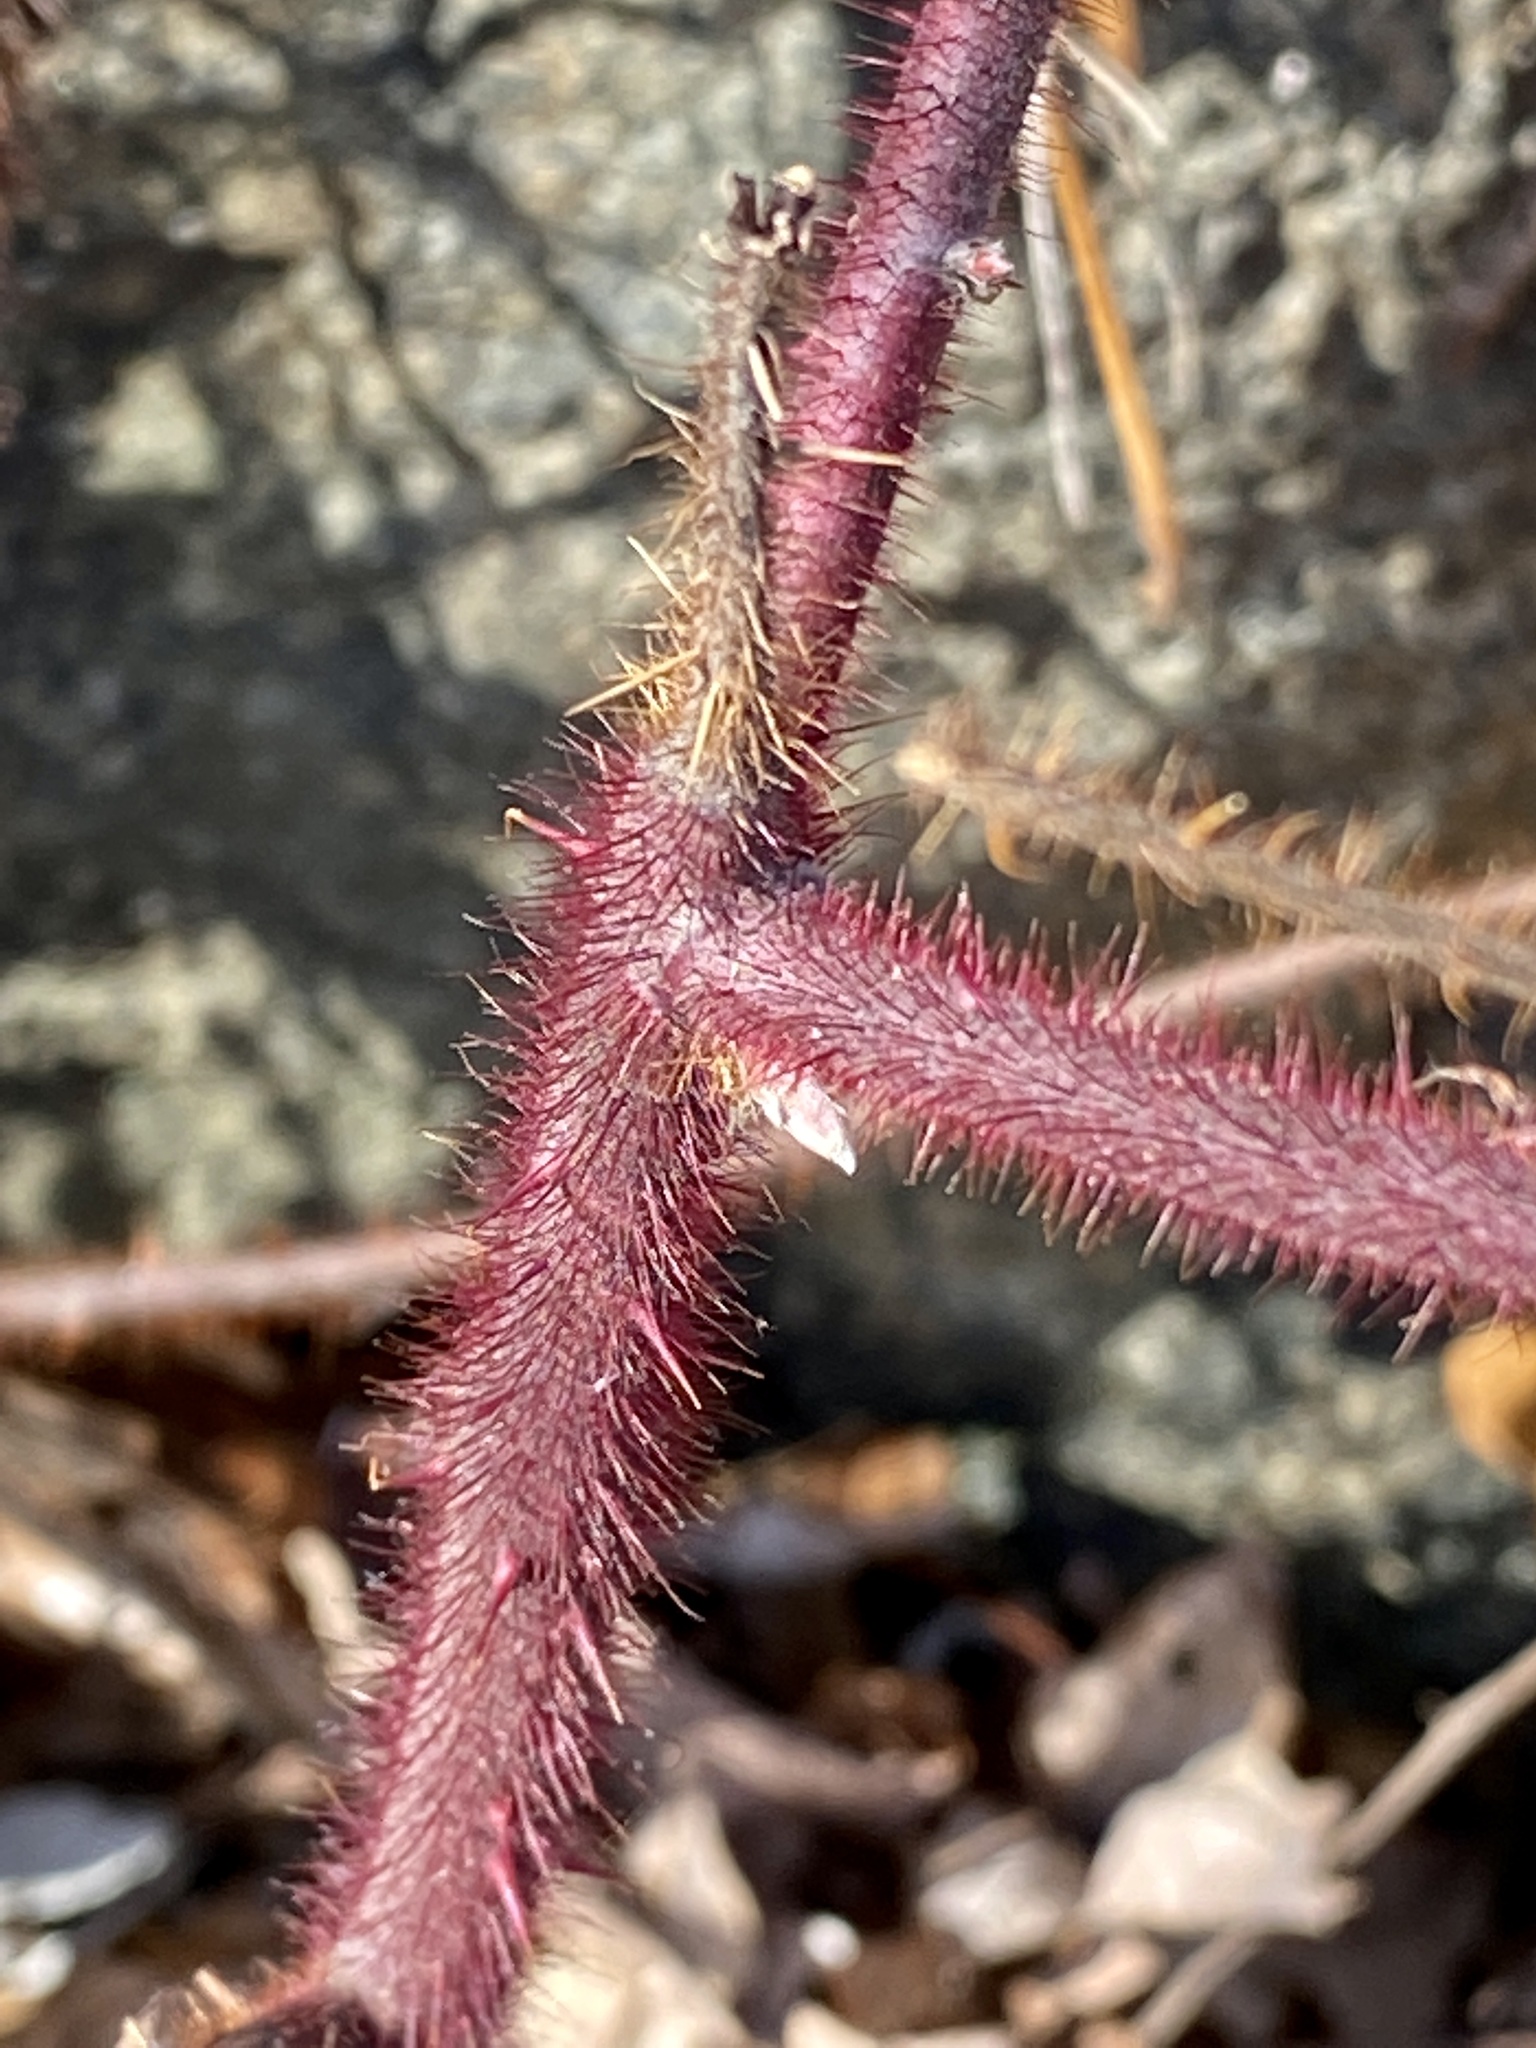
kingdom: Plantae
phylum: Tracheophyta
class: Magnoliopsida
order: Rosales
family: Rosaceae
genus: Rubus
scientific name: Rubus phoenicolasius
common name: Japanese wineberry
